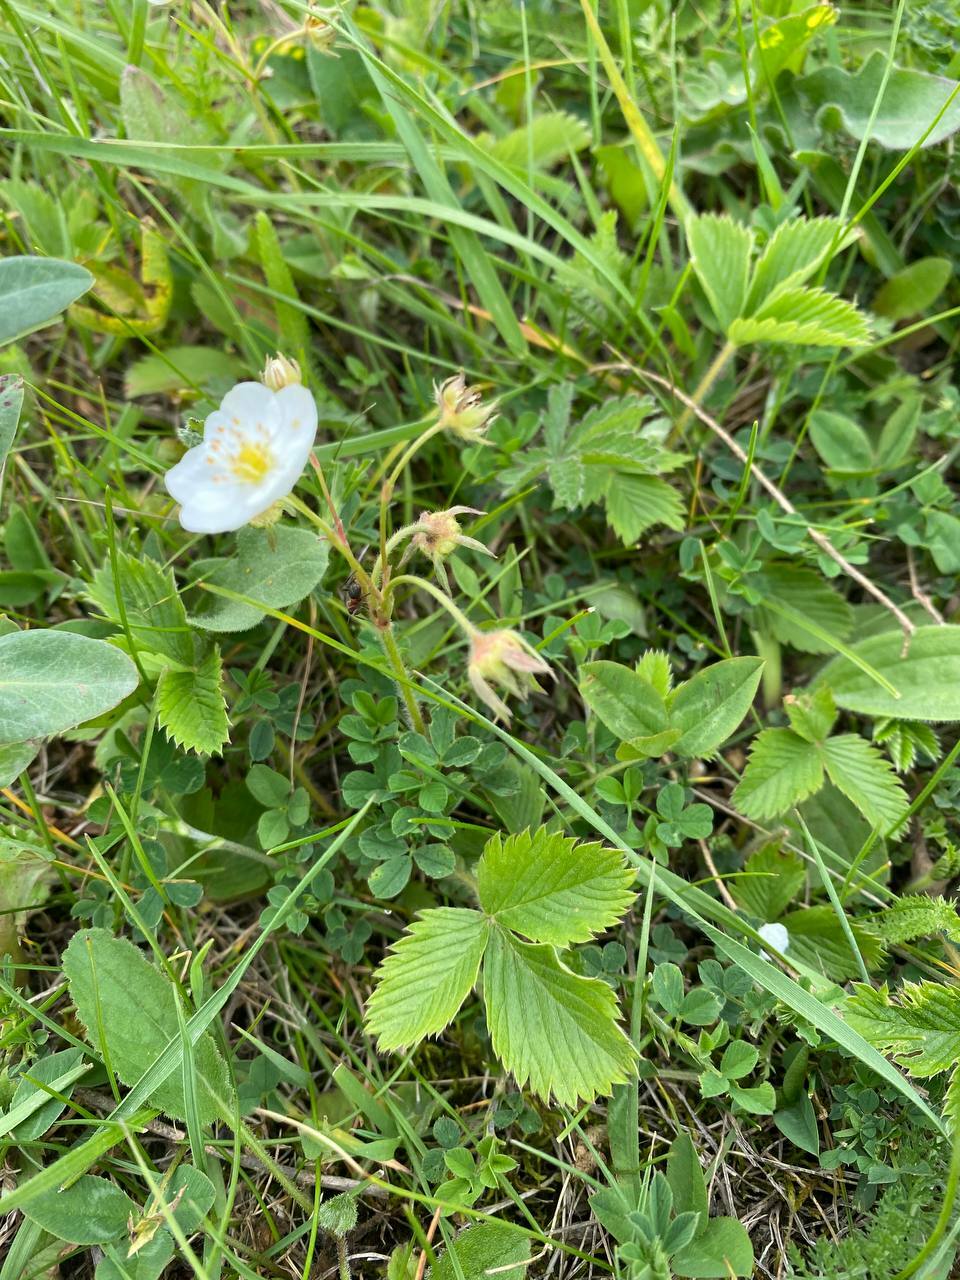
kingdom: Plantae
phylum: Tracheophyta
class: Magnoliopsida
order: Rosales
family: Rosaceae
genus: Fragaria
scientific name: Fragaria viridis
